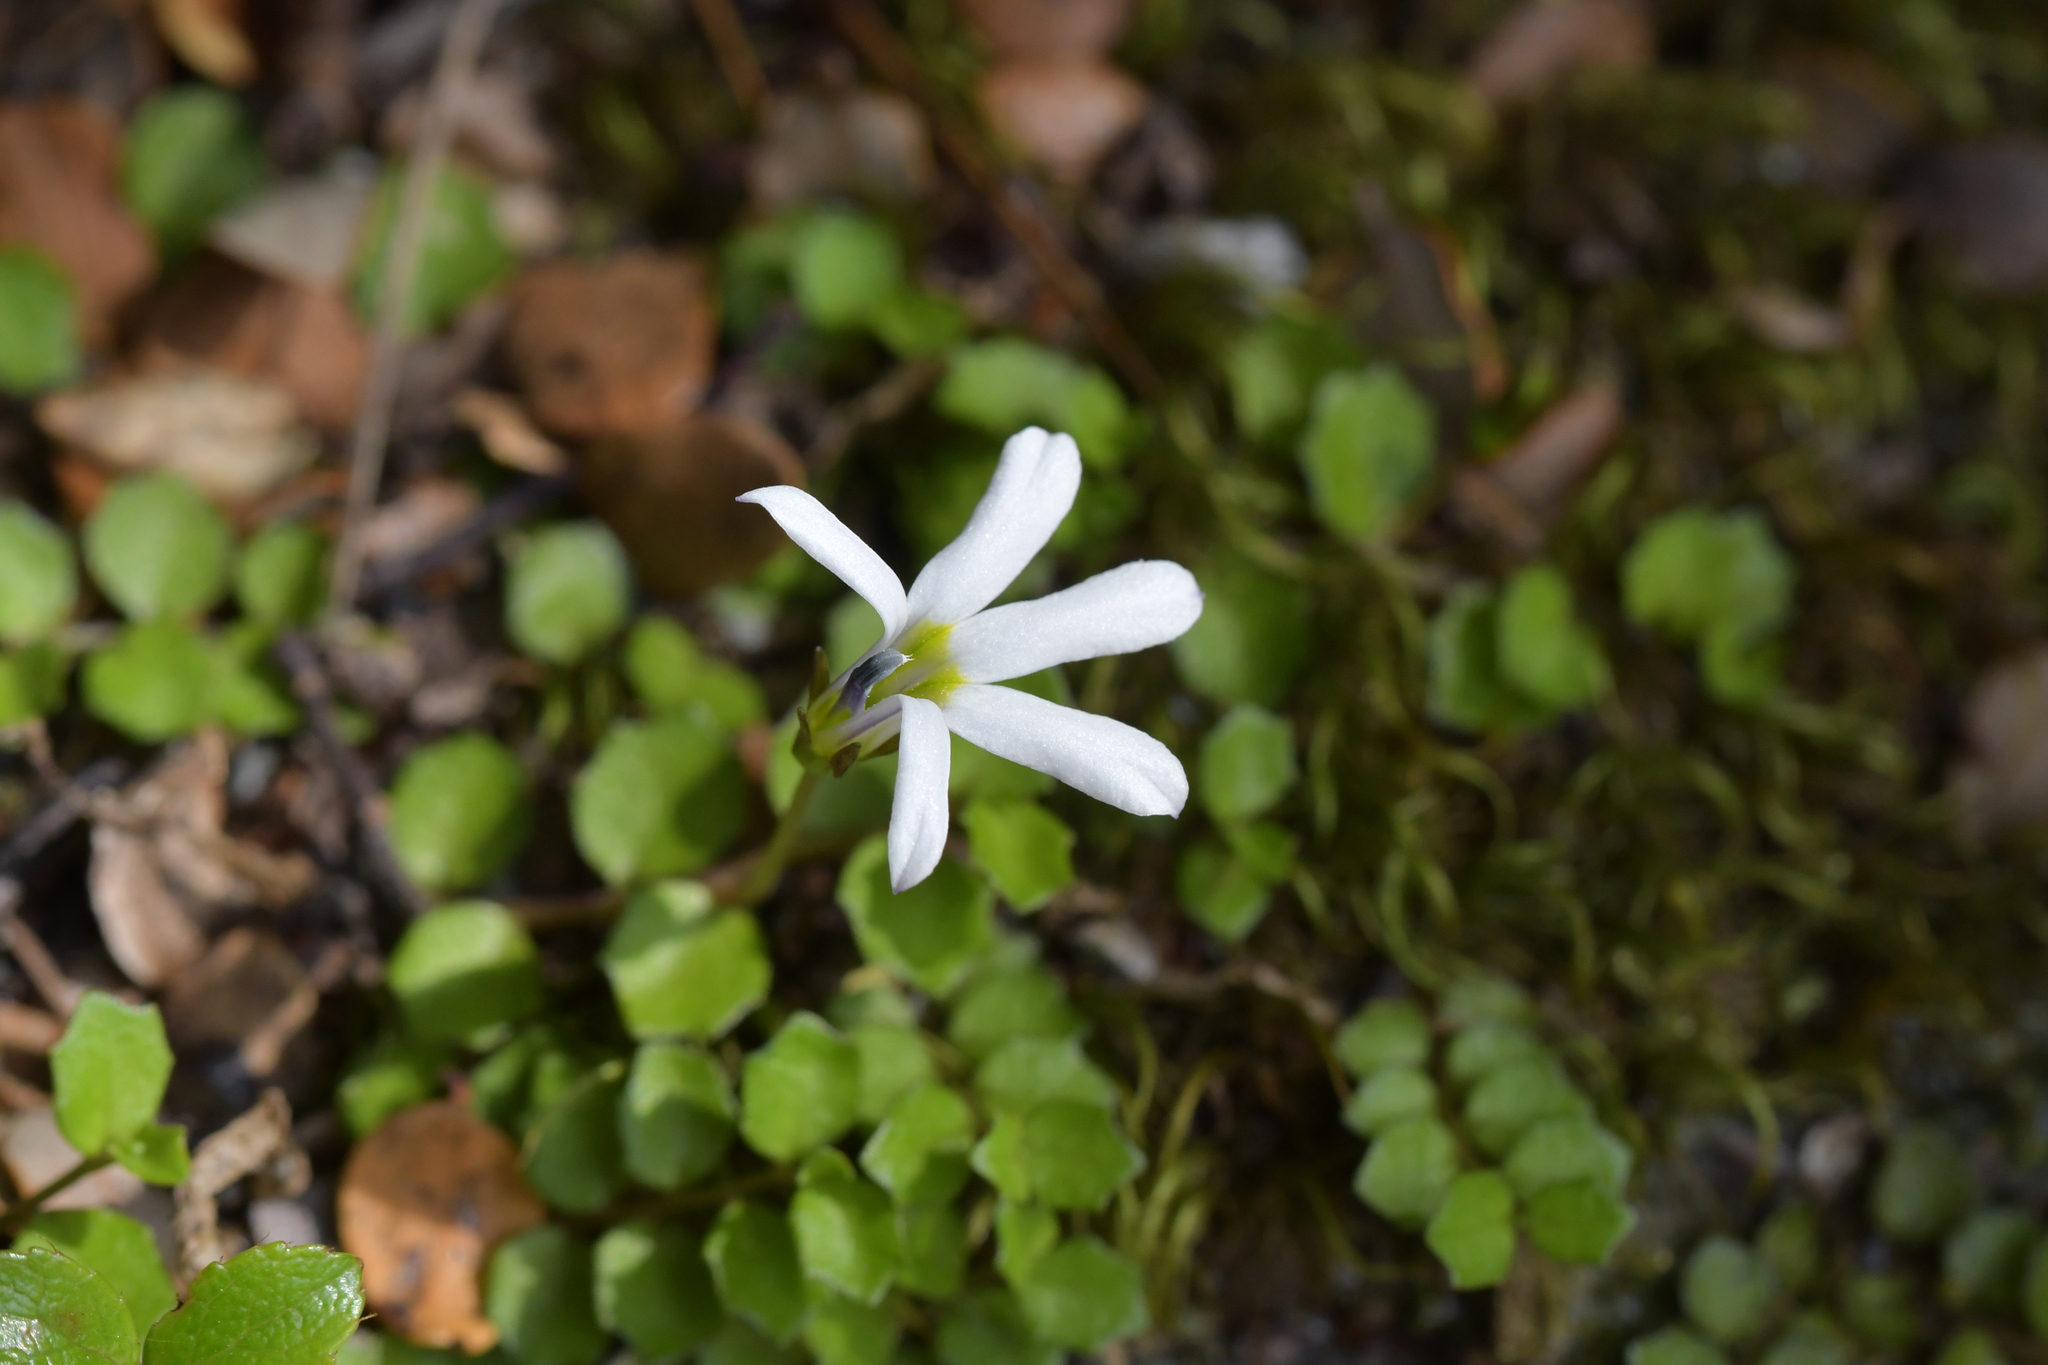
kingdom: Plantae
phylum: Tracheophyta
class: Magnoliopsida
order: Asterales
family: Campanulaceae
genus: Lobelia
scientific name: Lobelia macrodon
